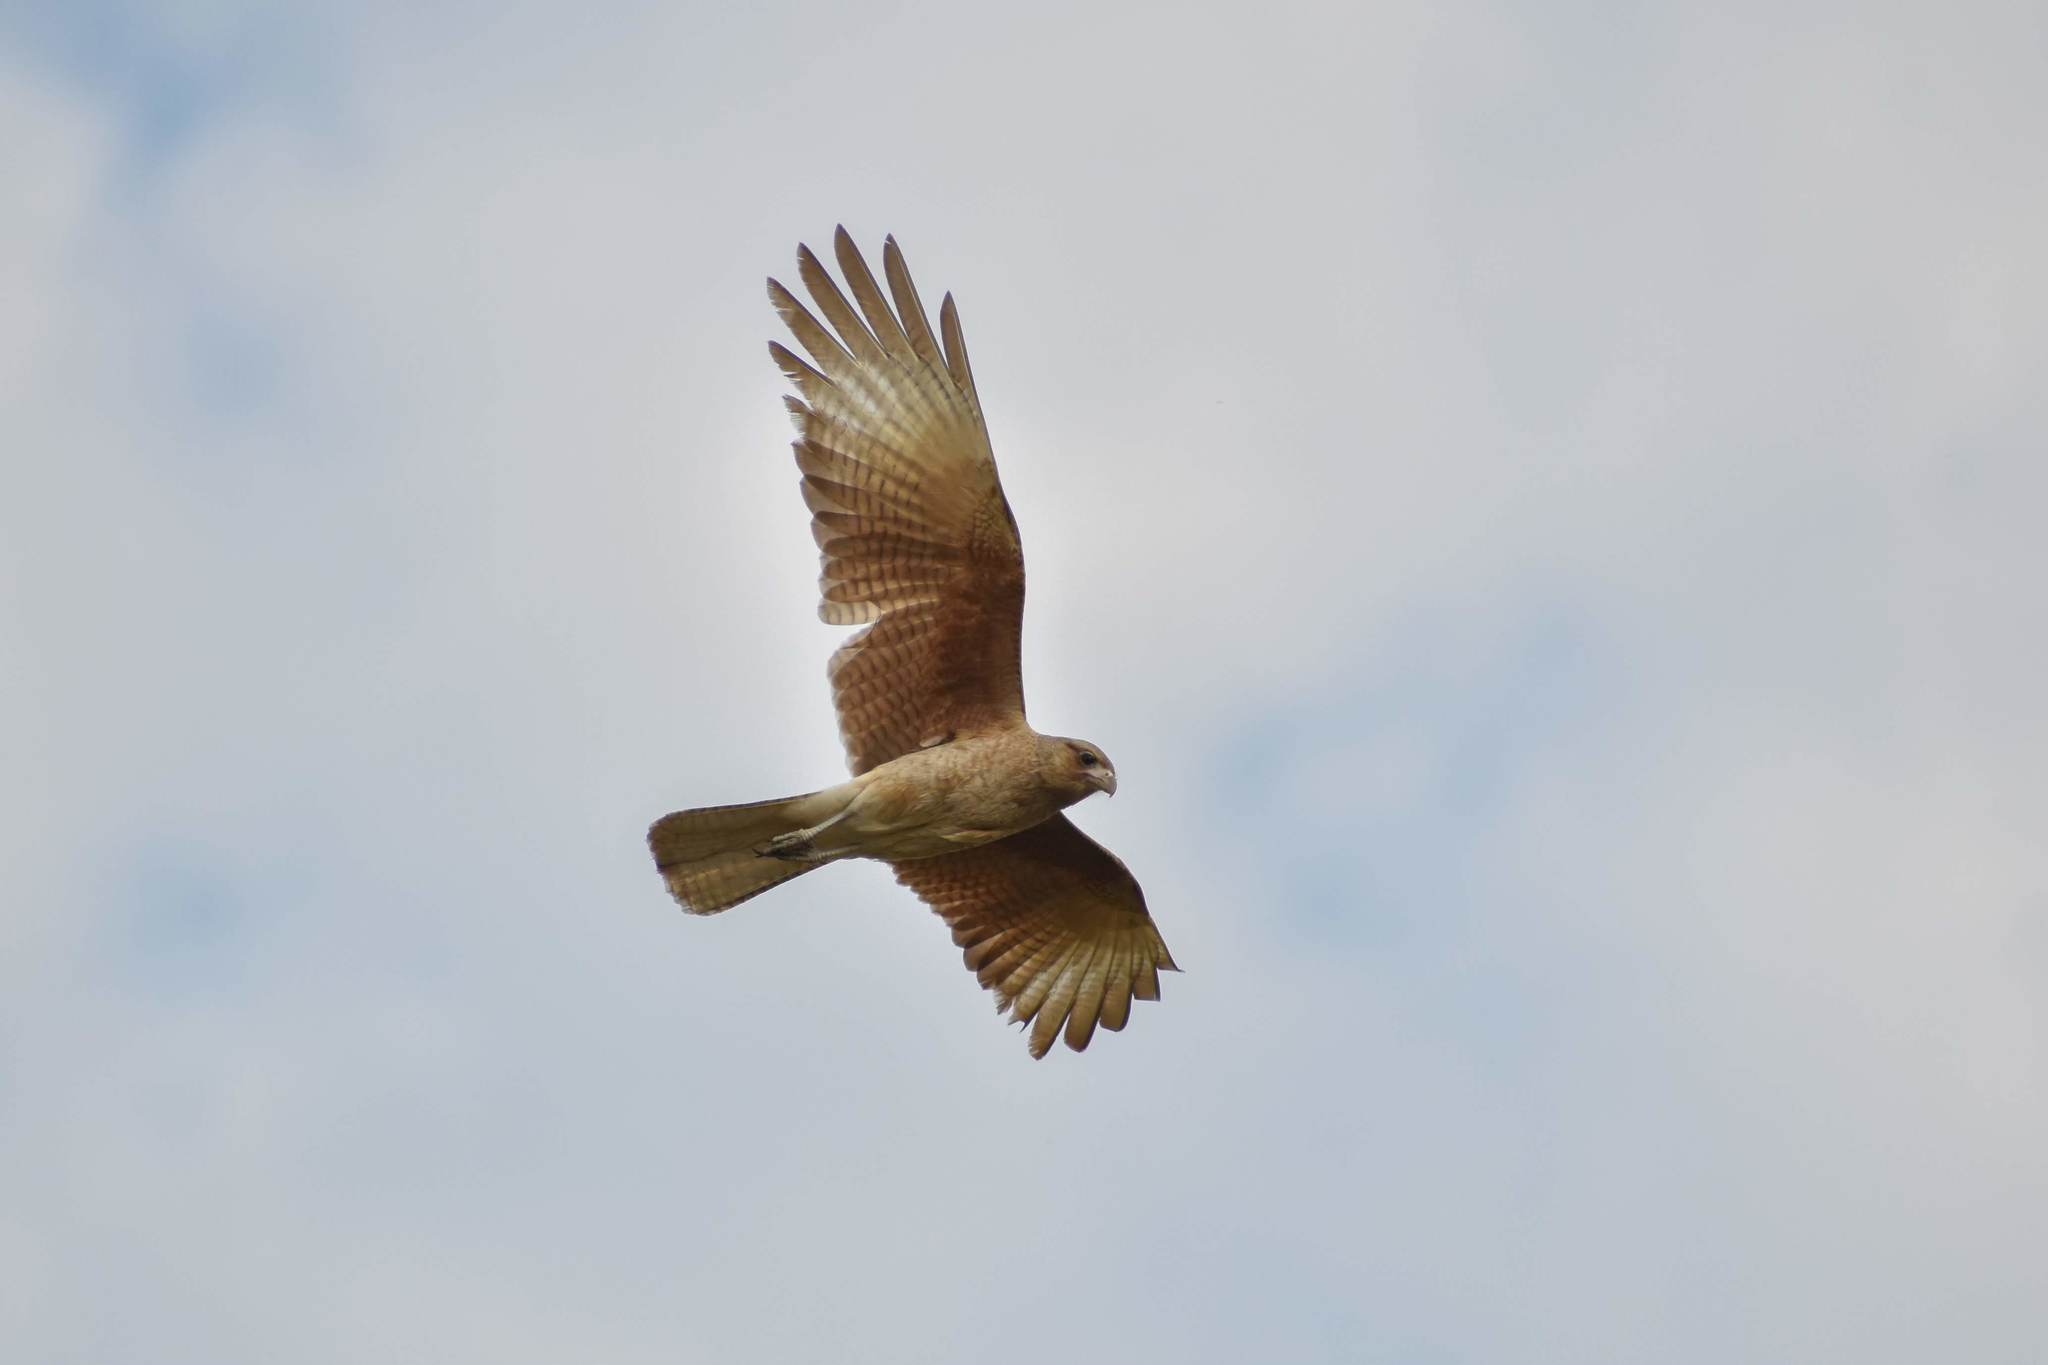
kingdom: Animalia
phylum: Chordata
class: Aves
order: Falconiformes
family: Falconidae
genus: Daptrius
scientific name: Daptrius
